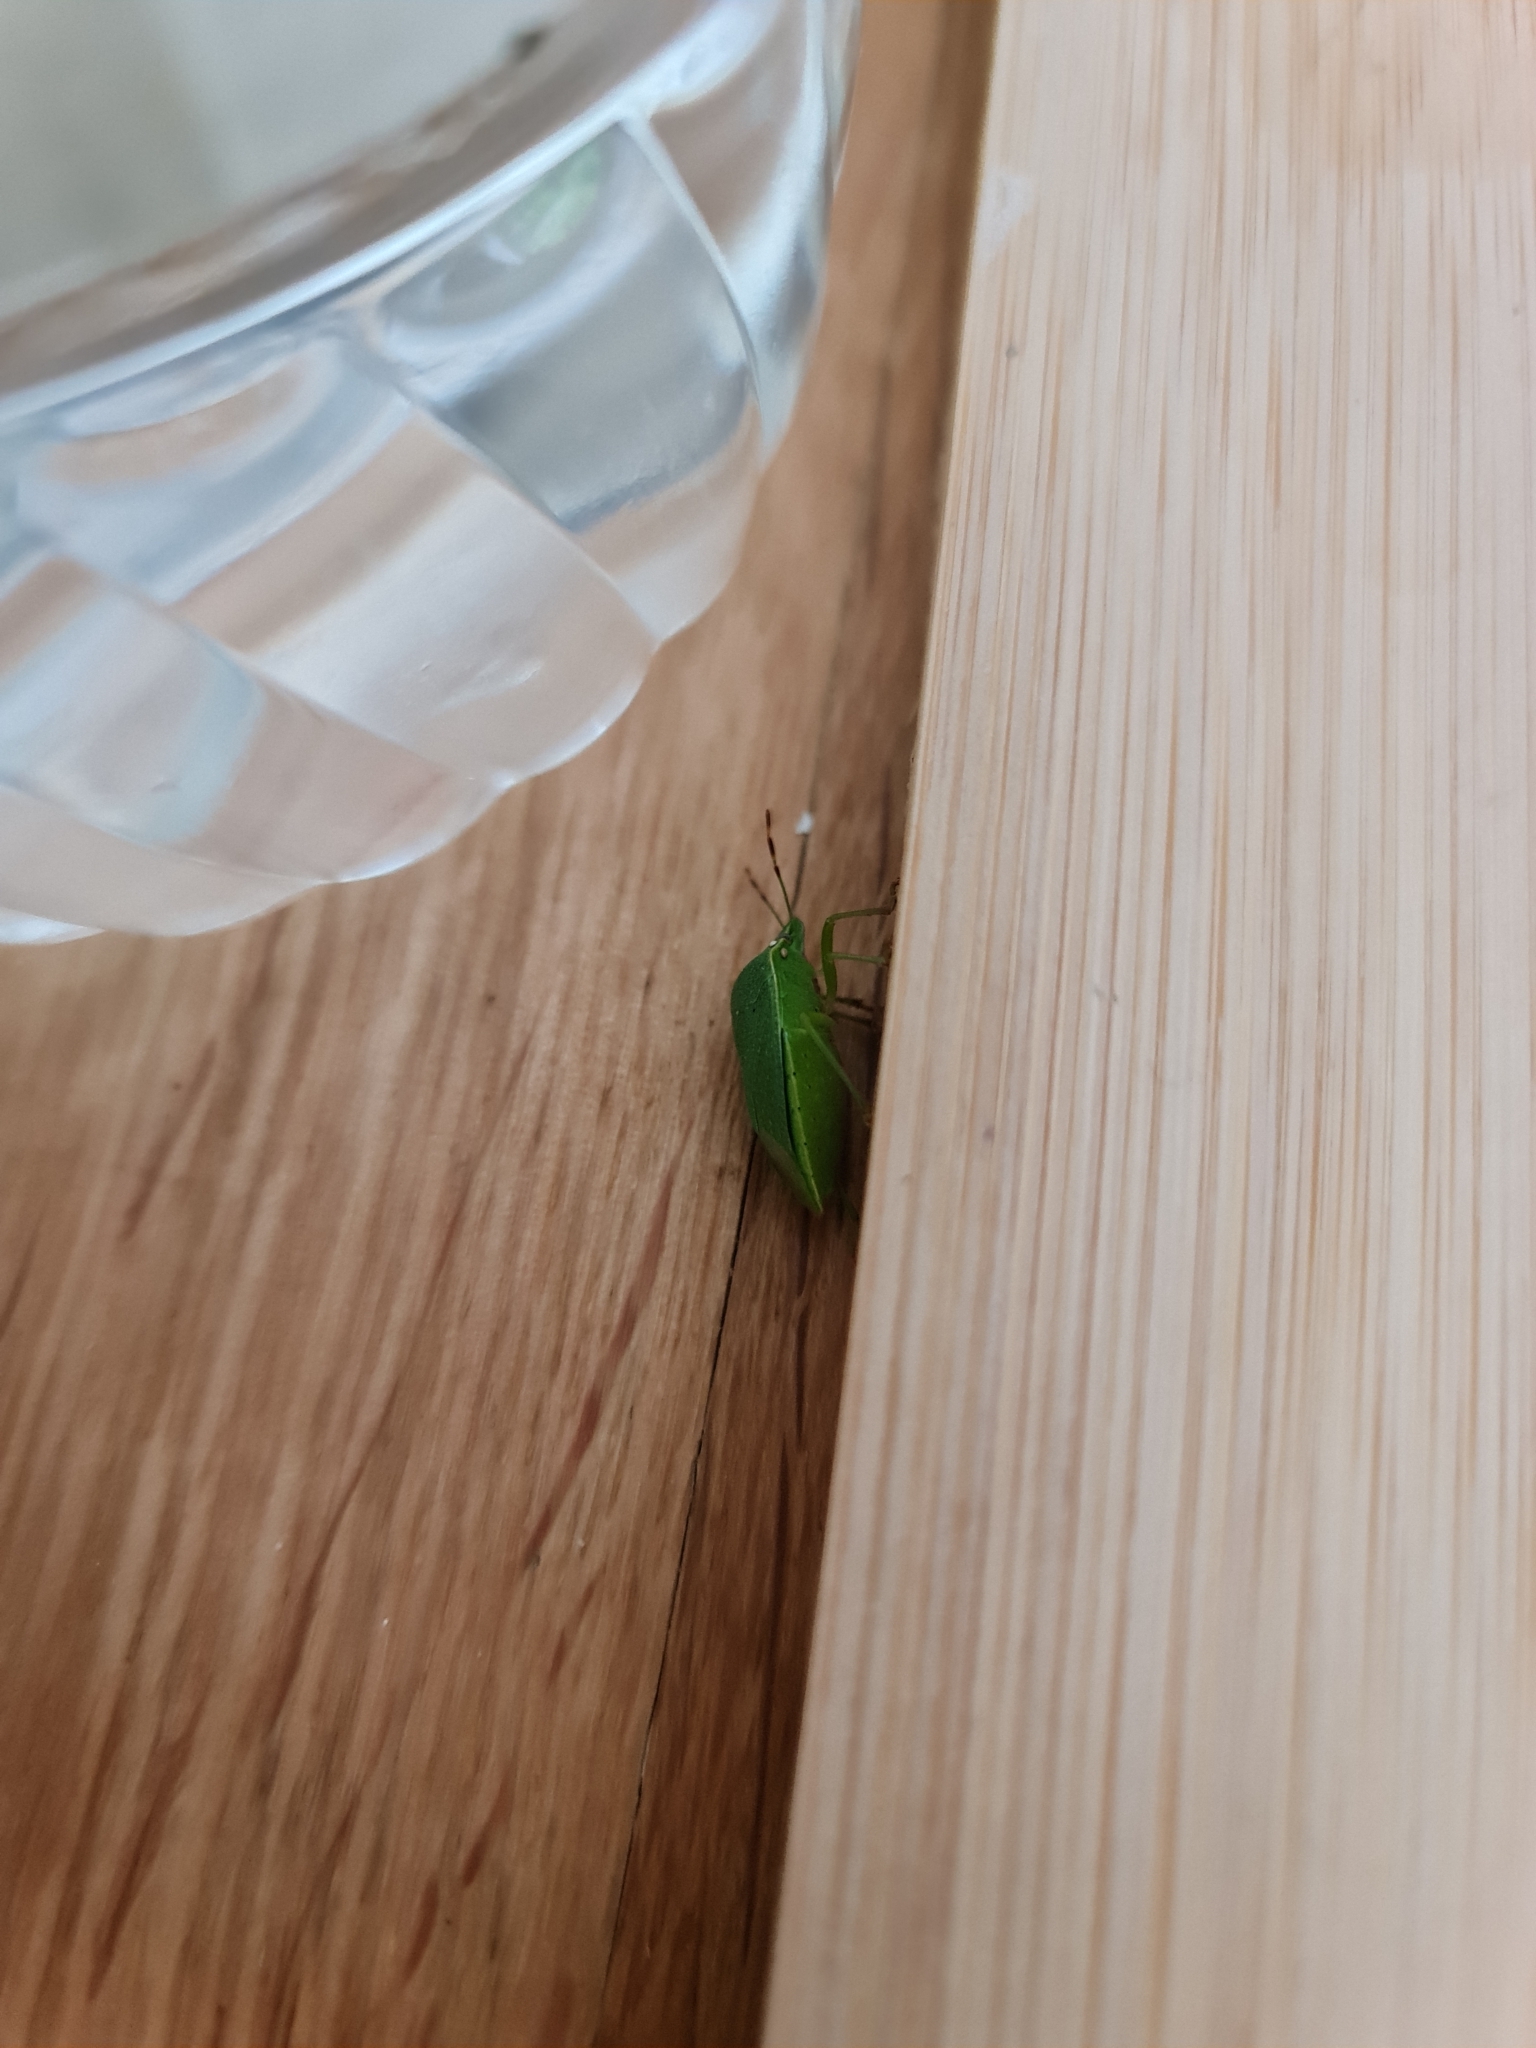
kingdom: Animalia
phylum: Arthropoda
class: Insecta
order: Hemiptera
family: Pentatomidae
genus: Nezara
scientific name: Nezara viridula
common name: Southern green stink bug
